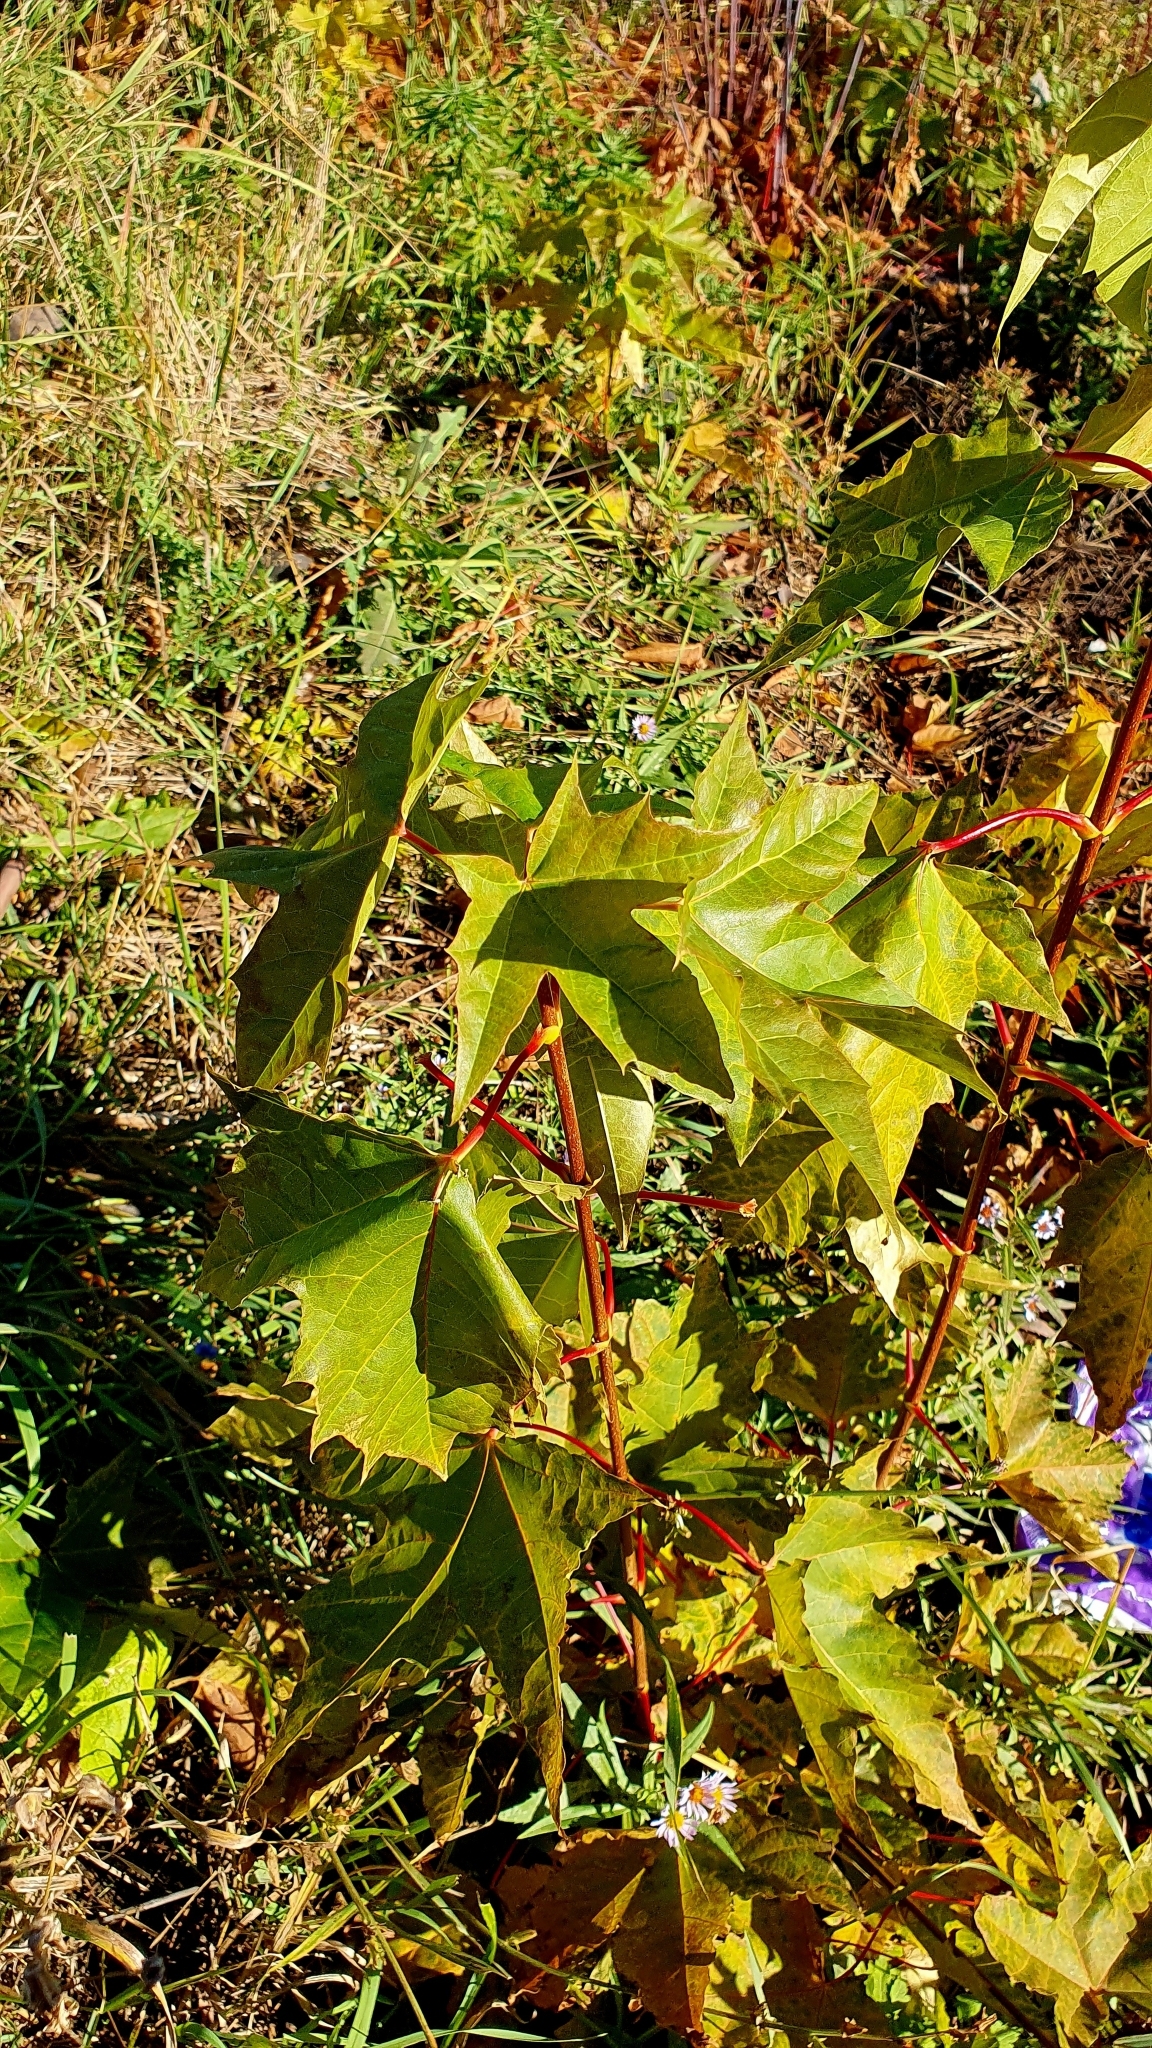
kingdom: Plantae
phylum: Tracheophyta
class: Magnoliopsida
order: Sapindales
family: Sapindaceae
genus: Acer
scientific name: Acer platanoides
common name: Norway maple
